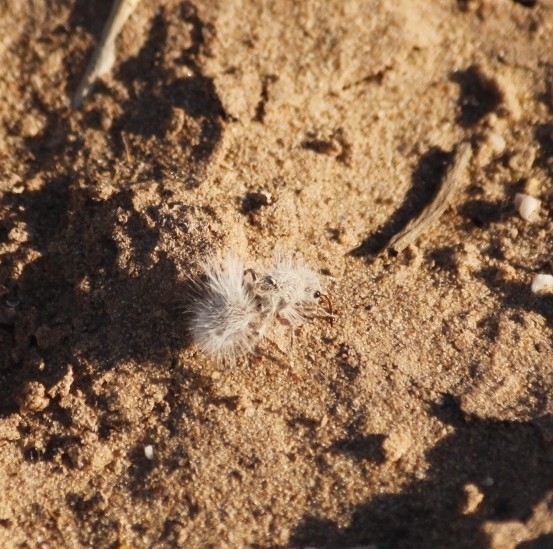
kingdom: Animalia
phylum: Arthropoda
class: Insecta
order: Hymenoptera
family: Mutillidae
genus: Dasymutilla
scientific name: Dasymutilla gloriosa
